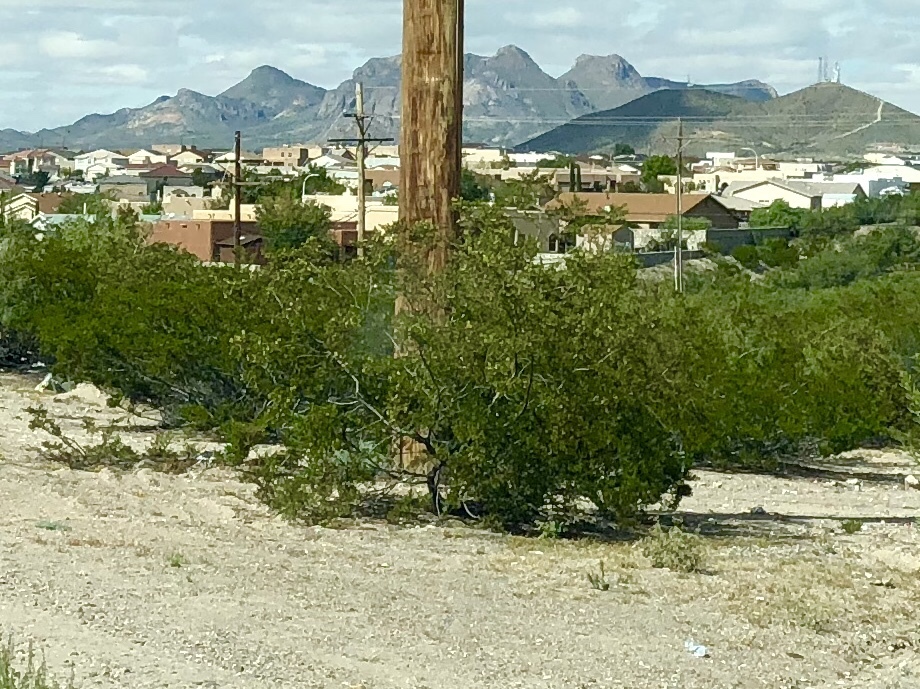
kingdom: Plantae
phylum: Tracheophyta
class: Magnoliopsida
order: Zygophyllales
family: Zygophyllaceae
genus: Larrea
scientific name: Larrea tridentata
